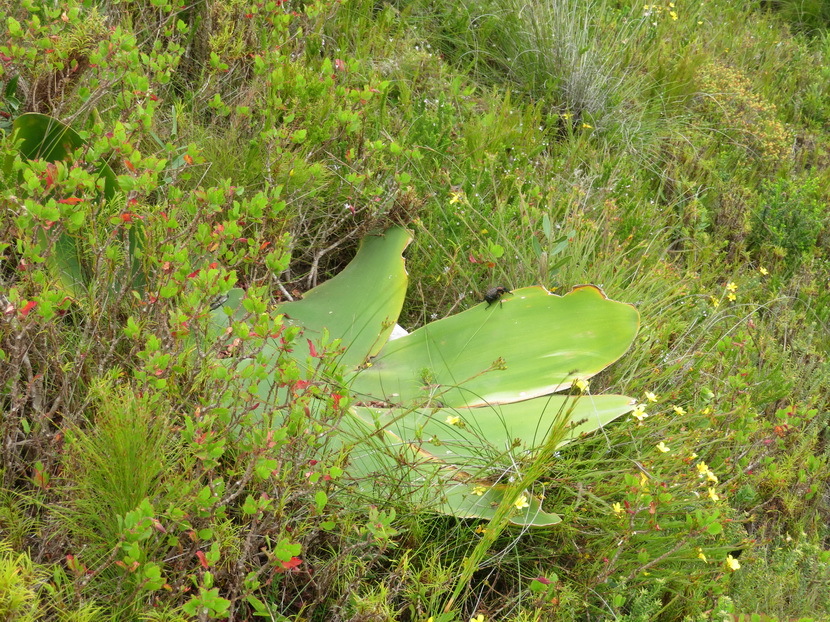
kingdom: Plantae
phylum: Tracheophyta
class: Liliopsida
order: Asparagales
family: Amaryllidaceae
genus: Brunsvigia
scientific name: Brunsvigia orientalis
